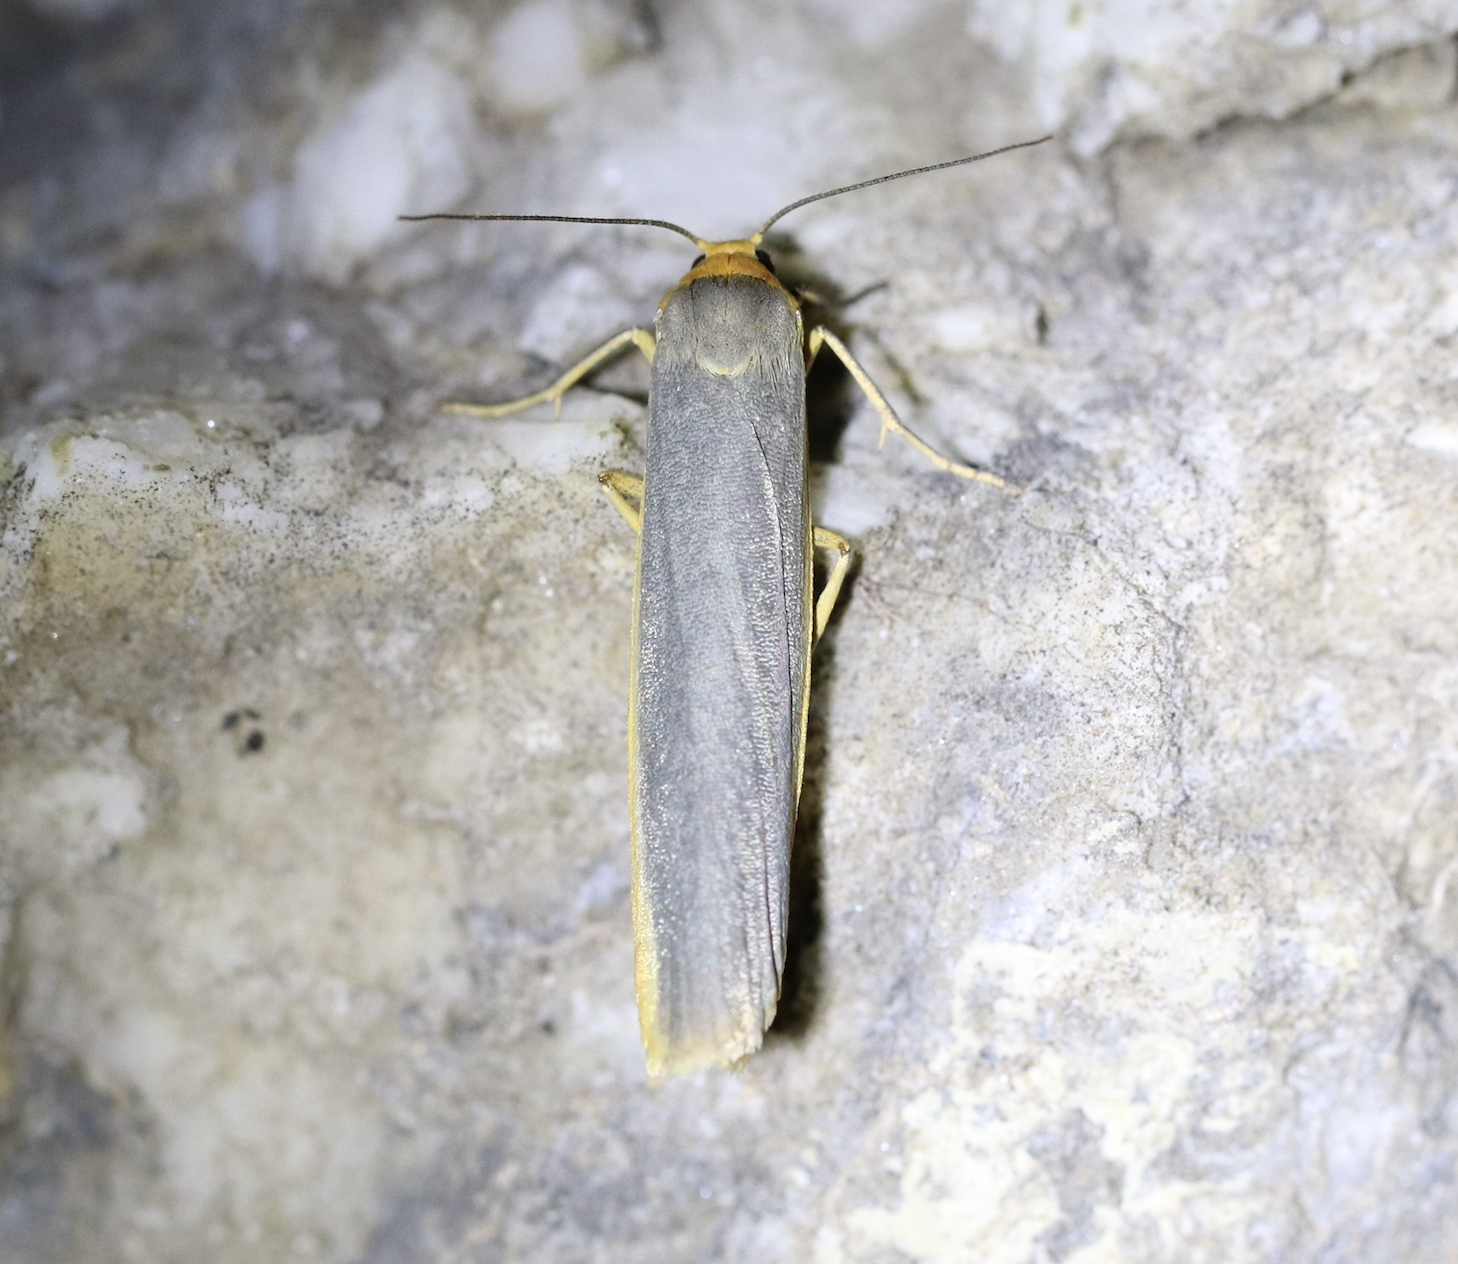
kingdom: Animalia
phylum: Arthropoda
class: Insecta
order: Lepidoptera
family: Erebidae
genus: Manulea
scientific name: Manulea complana
